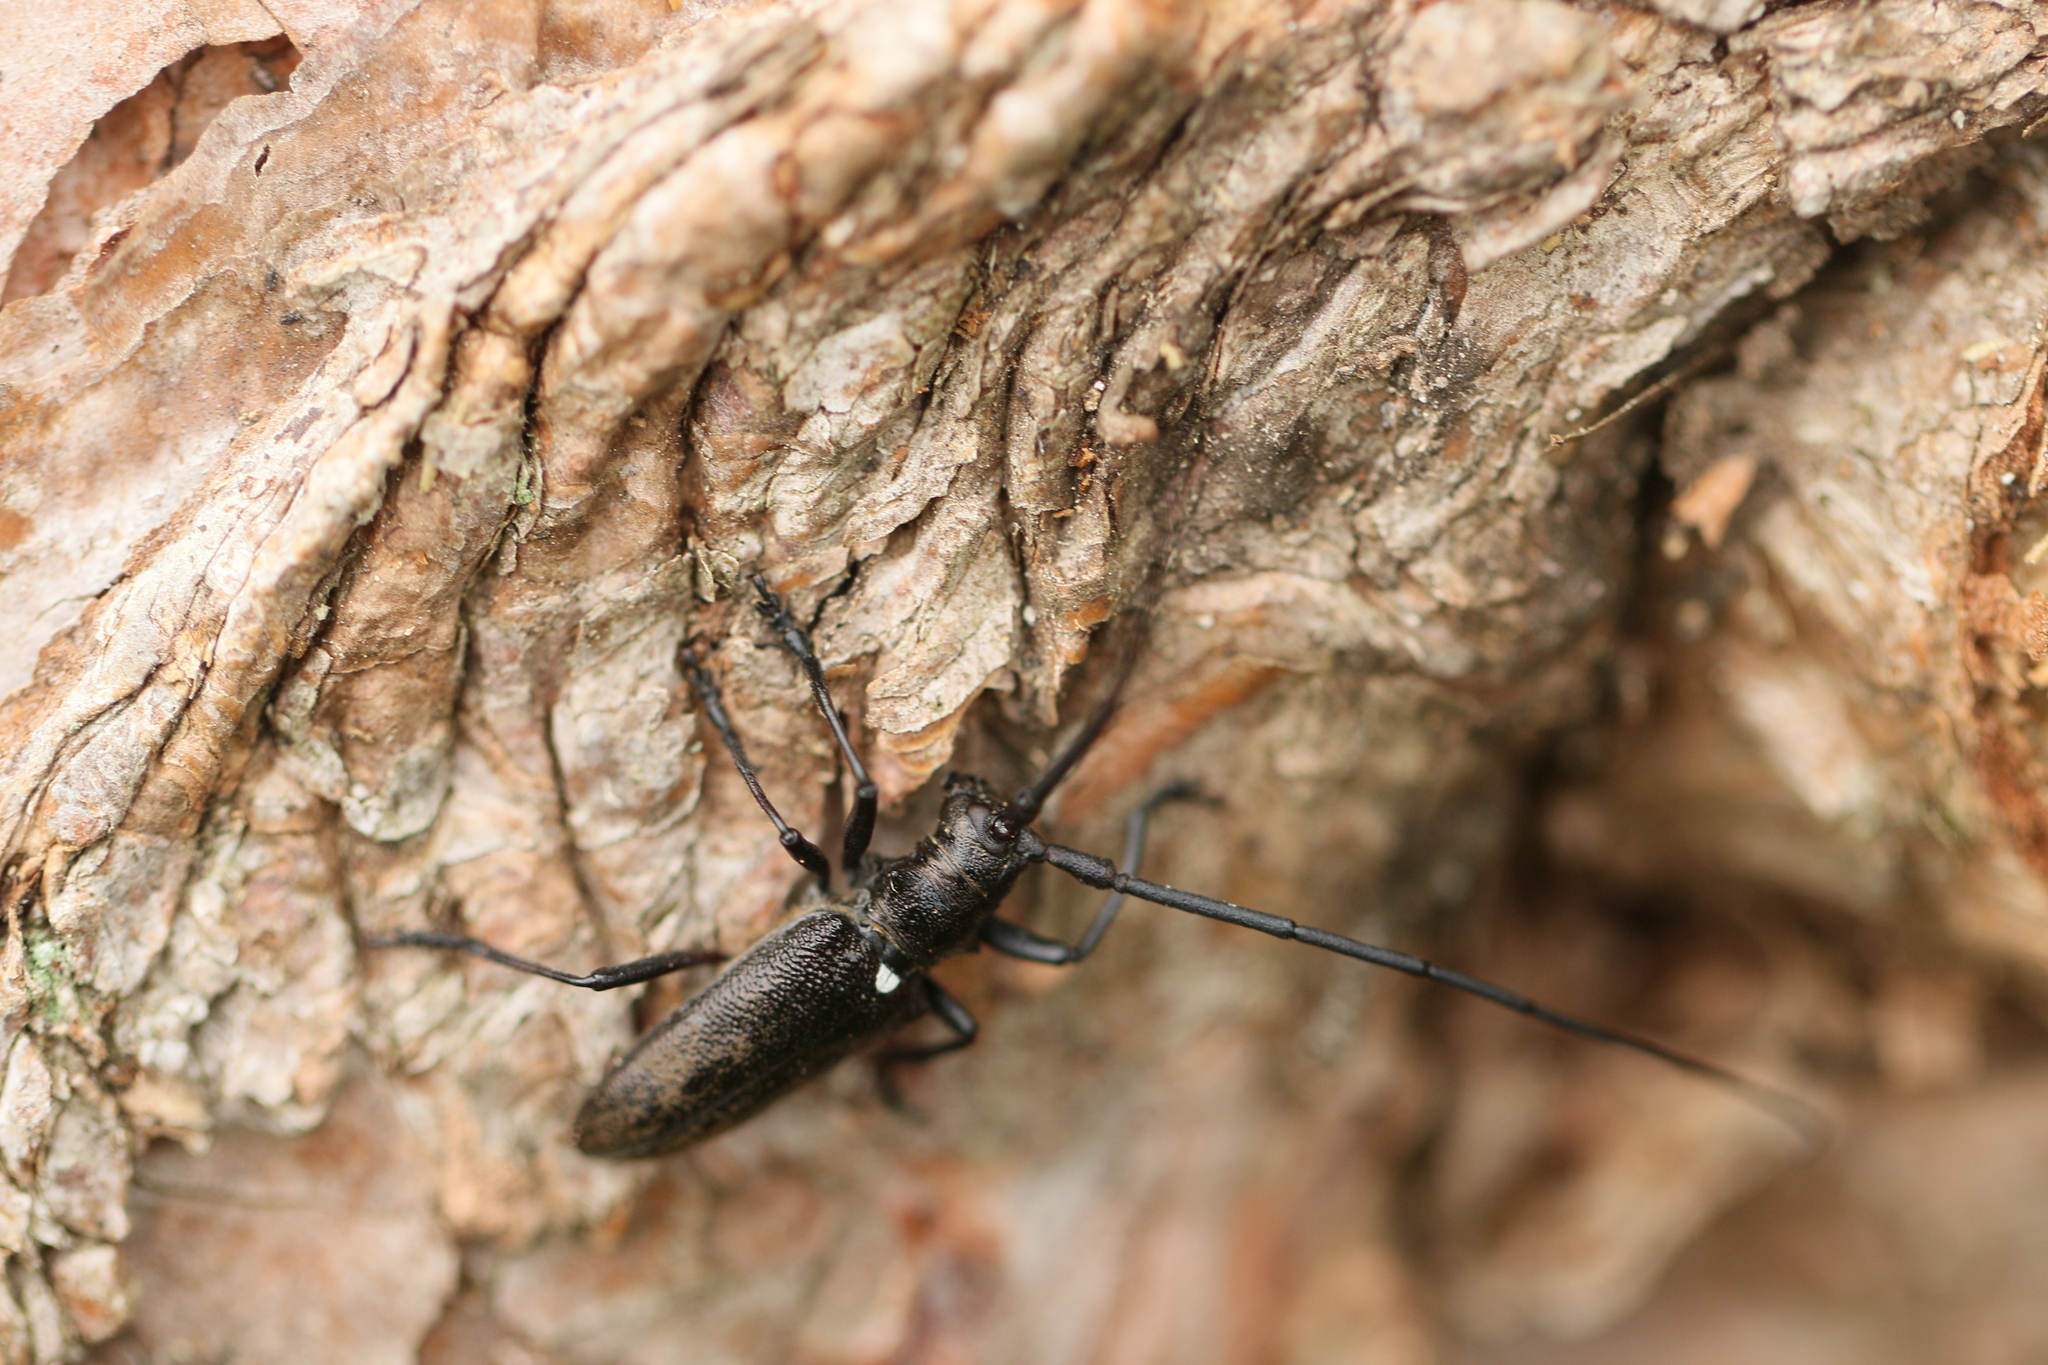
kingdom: Animalia
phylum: Arthropoda
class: Insecta
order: Coleoptera
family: Cerambycidae
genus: Monochamus
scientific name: Monochamus scutellatus
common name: White-spotted sawyer beetle
